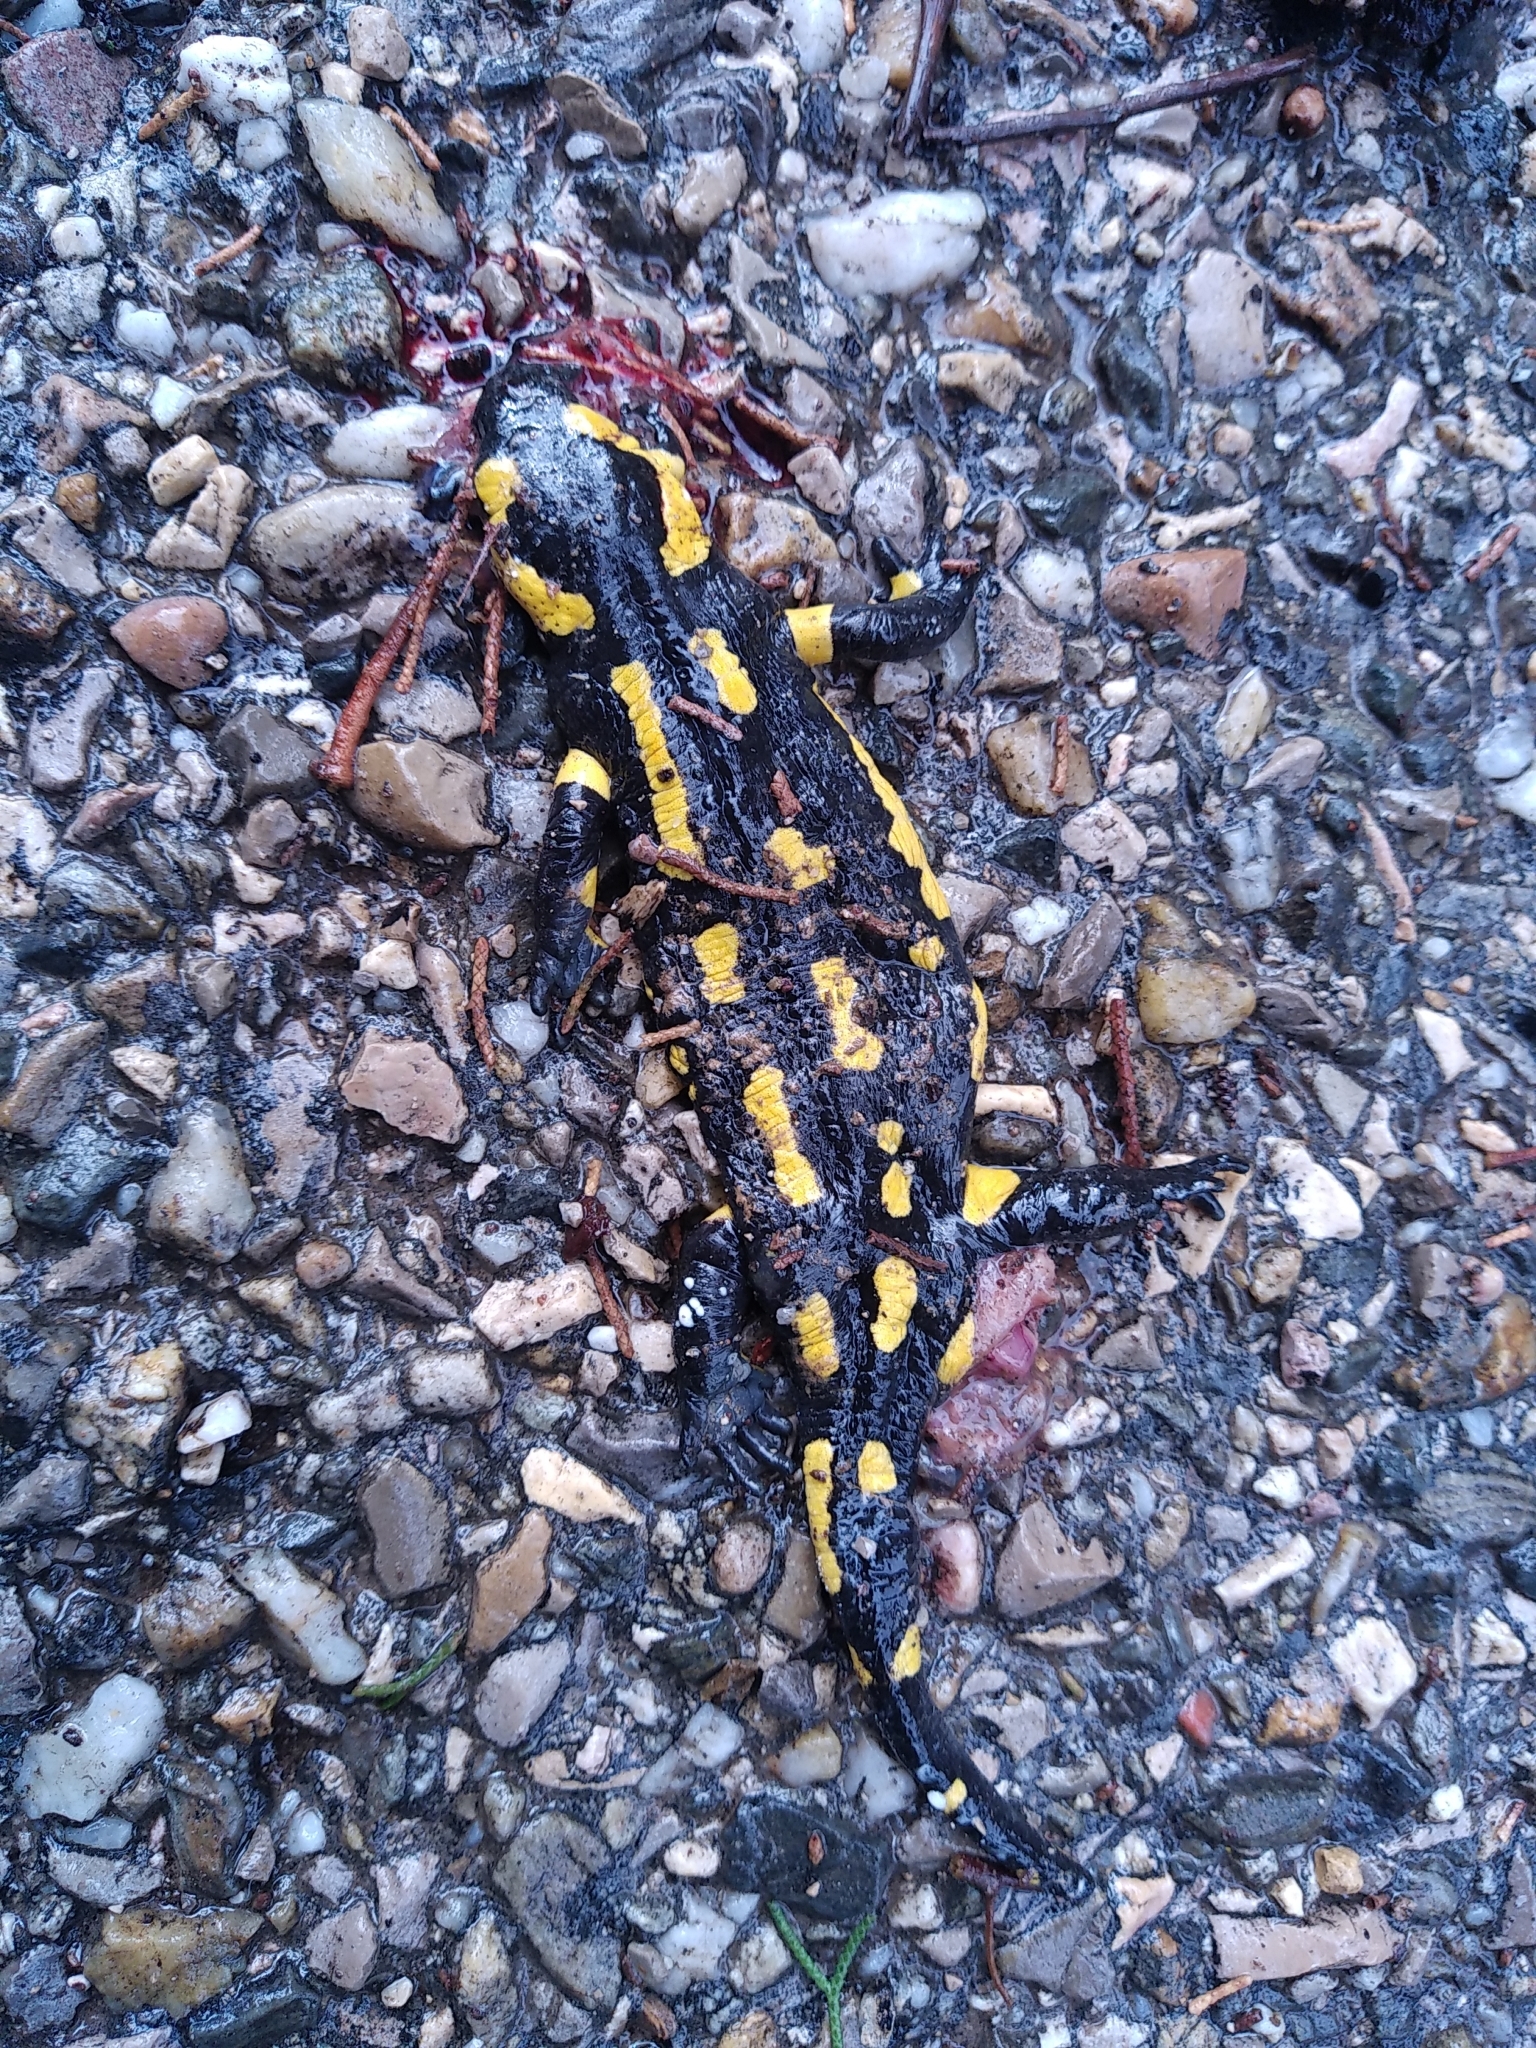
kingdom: Animalia
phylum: Chordata
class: Amphibia
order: Caudata
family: Salamandridae
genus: Salamandra
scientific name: Salamandra salamandra
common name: Fire salamander
